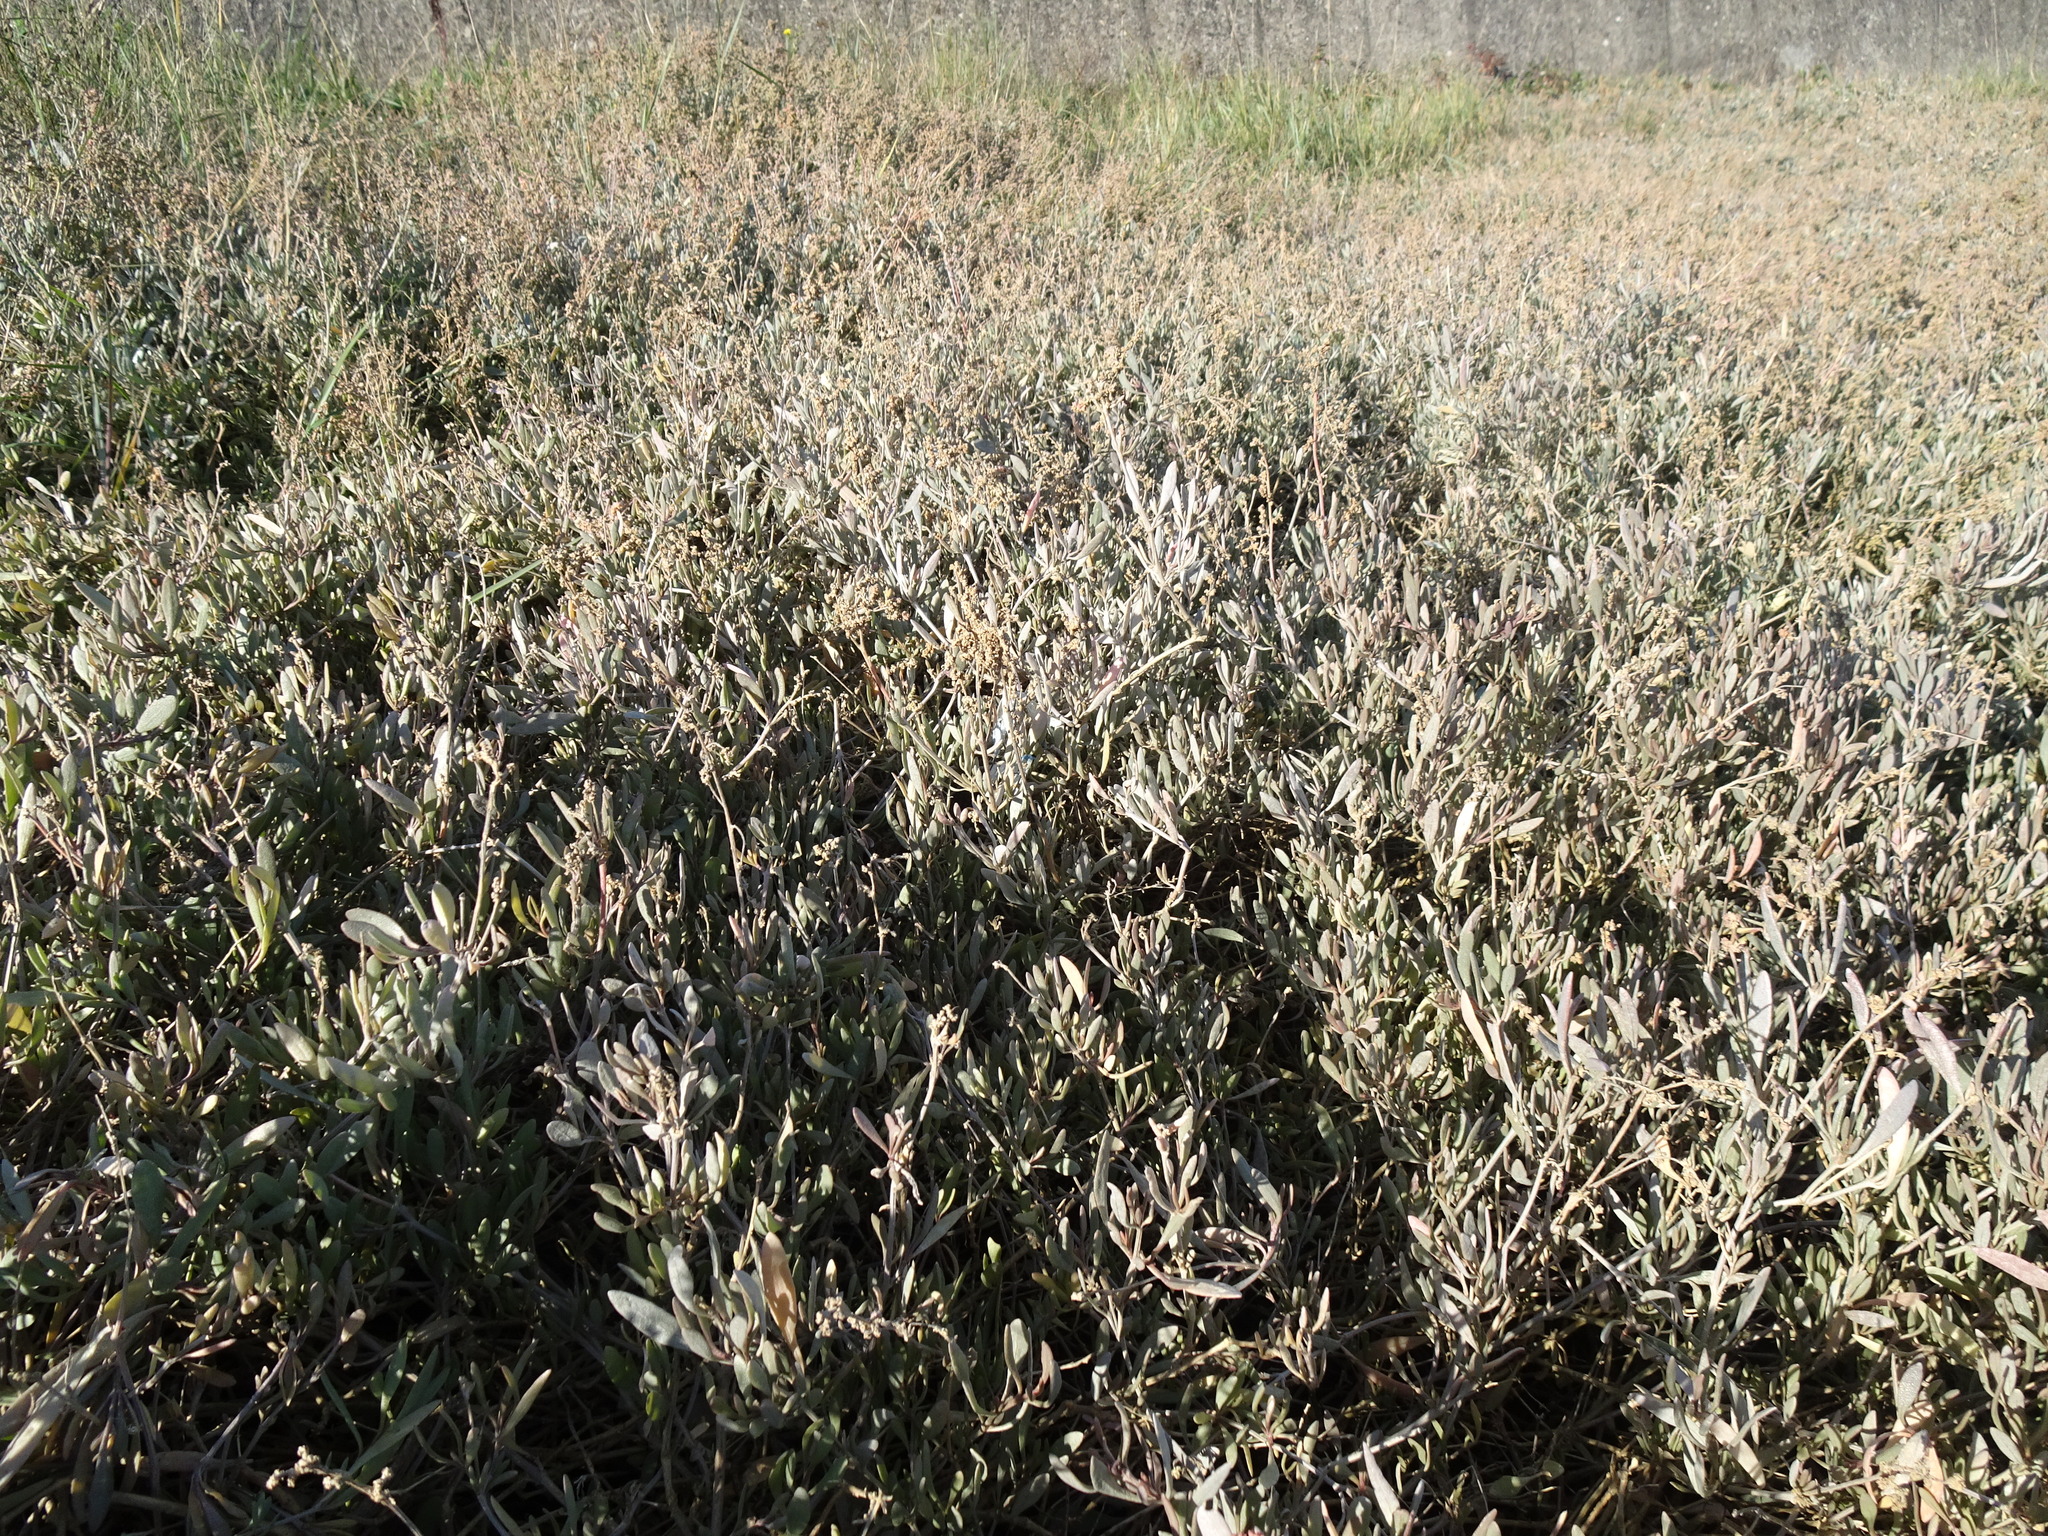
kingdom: Plantae
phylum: Tracheophyta
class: Magnoliopsida
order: Caryophyllales
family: Amaranthaceae
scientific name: Amaranthaceae
